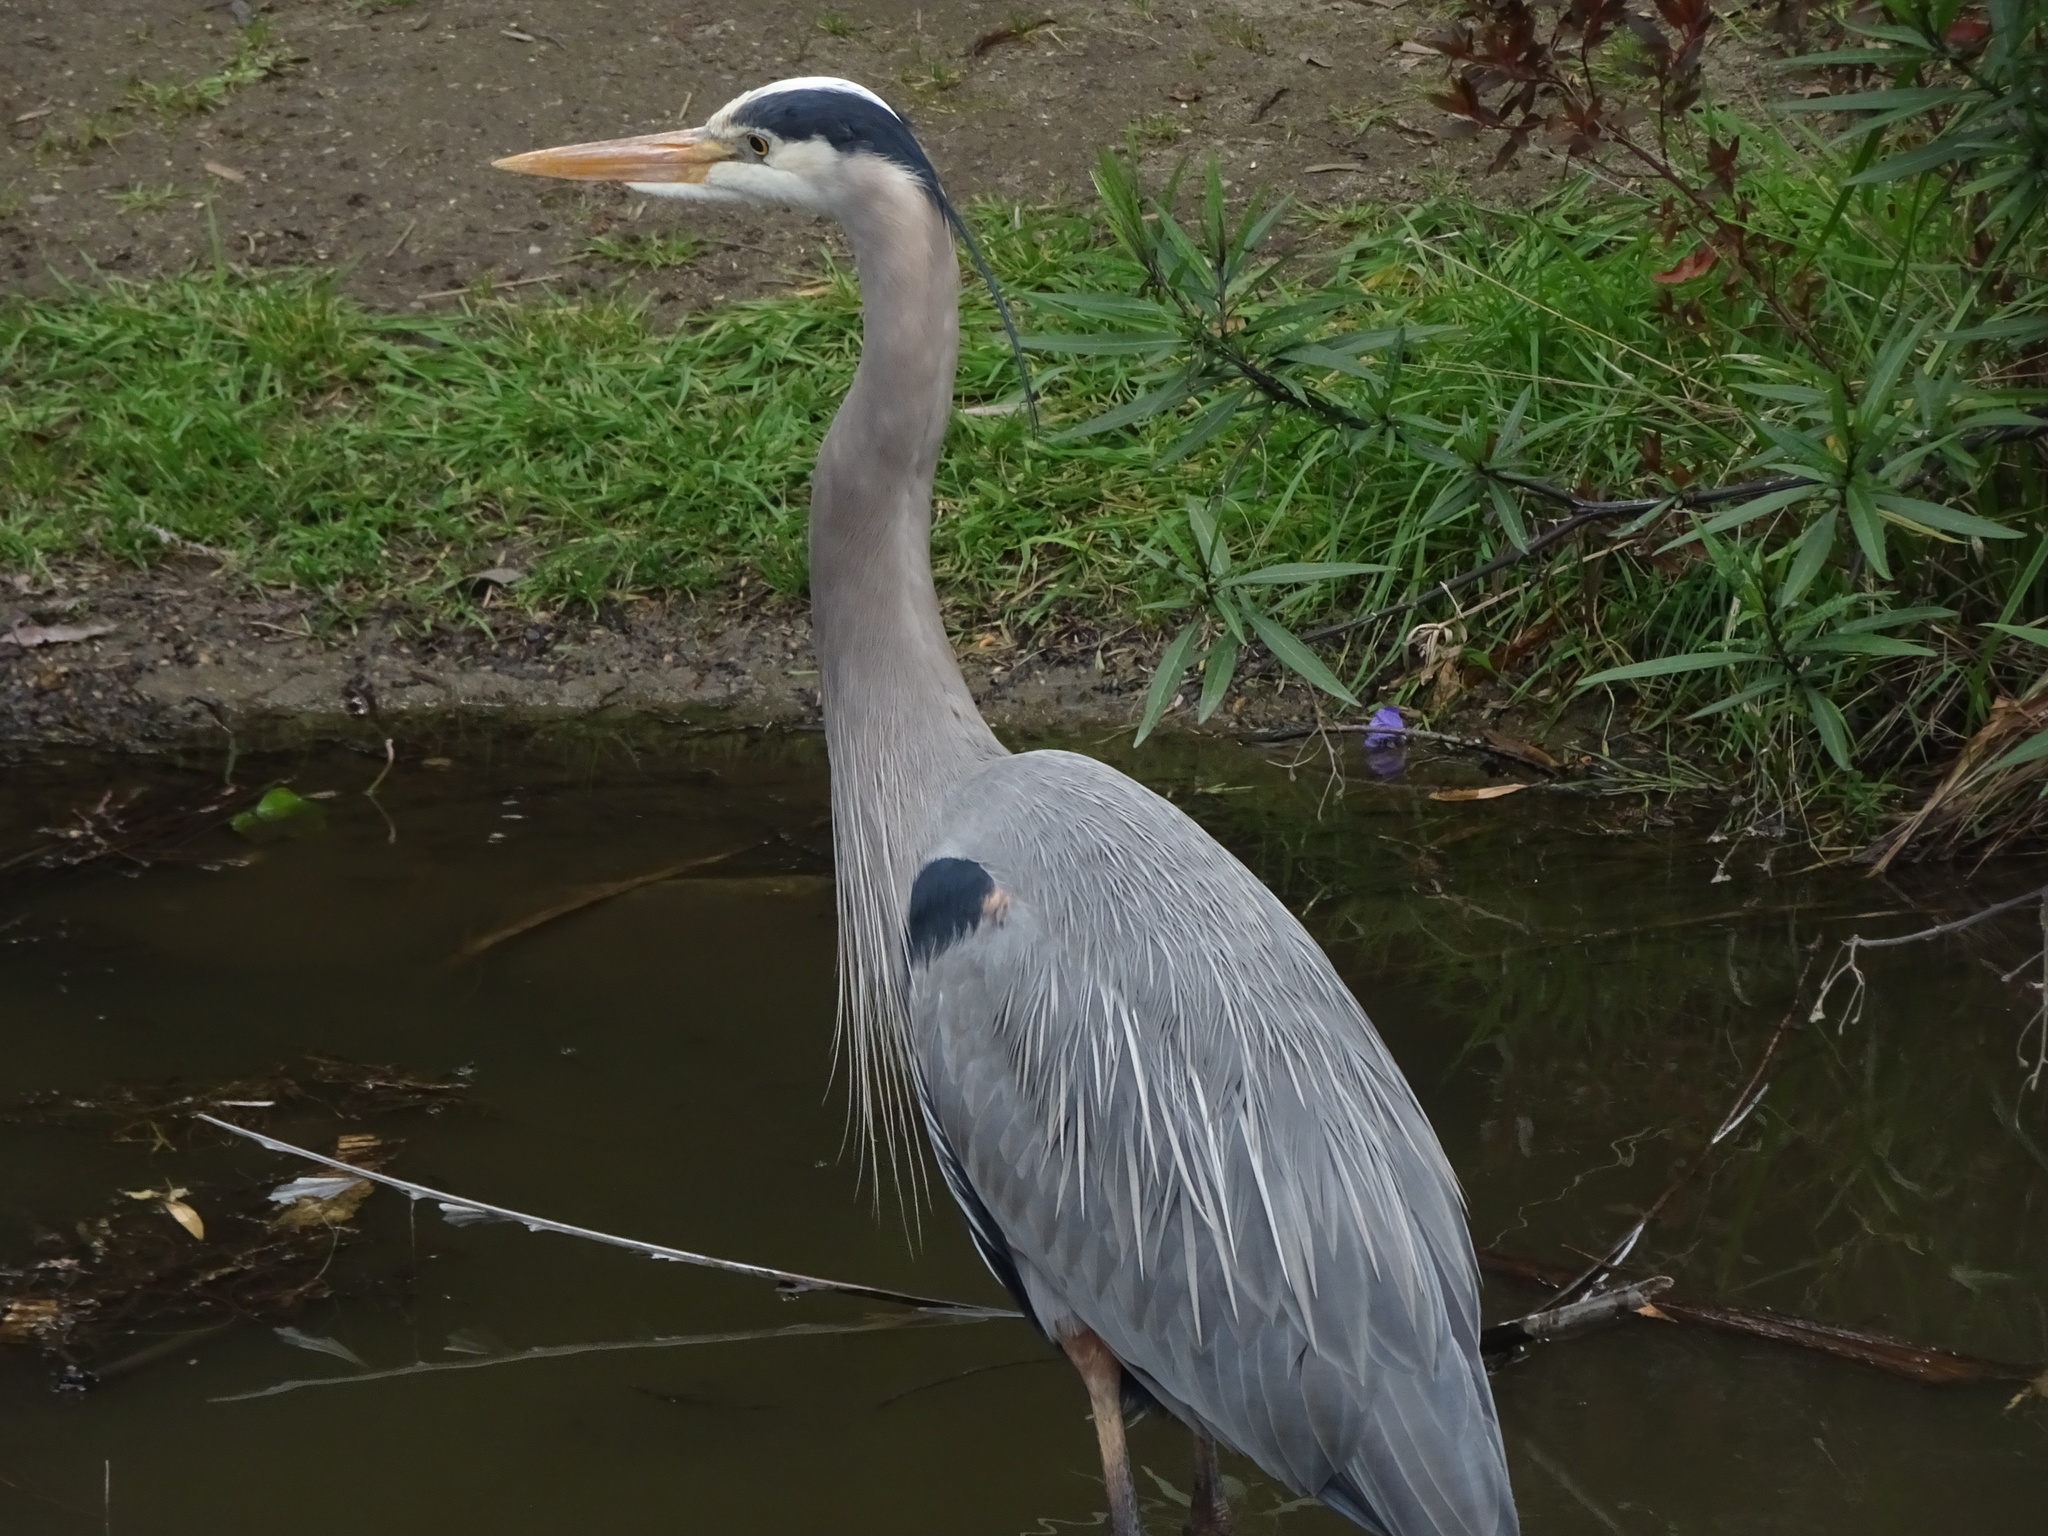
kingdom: Animalia
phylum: Chordata
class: Aves
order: Pelecaniformes
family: Ardeidae
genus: Ardea
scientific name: Ardea herodias
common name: Great blue heron
